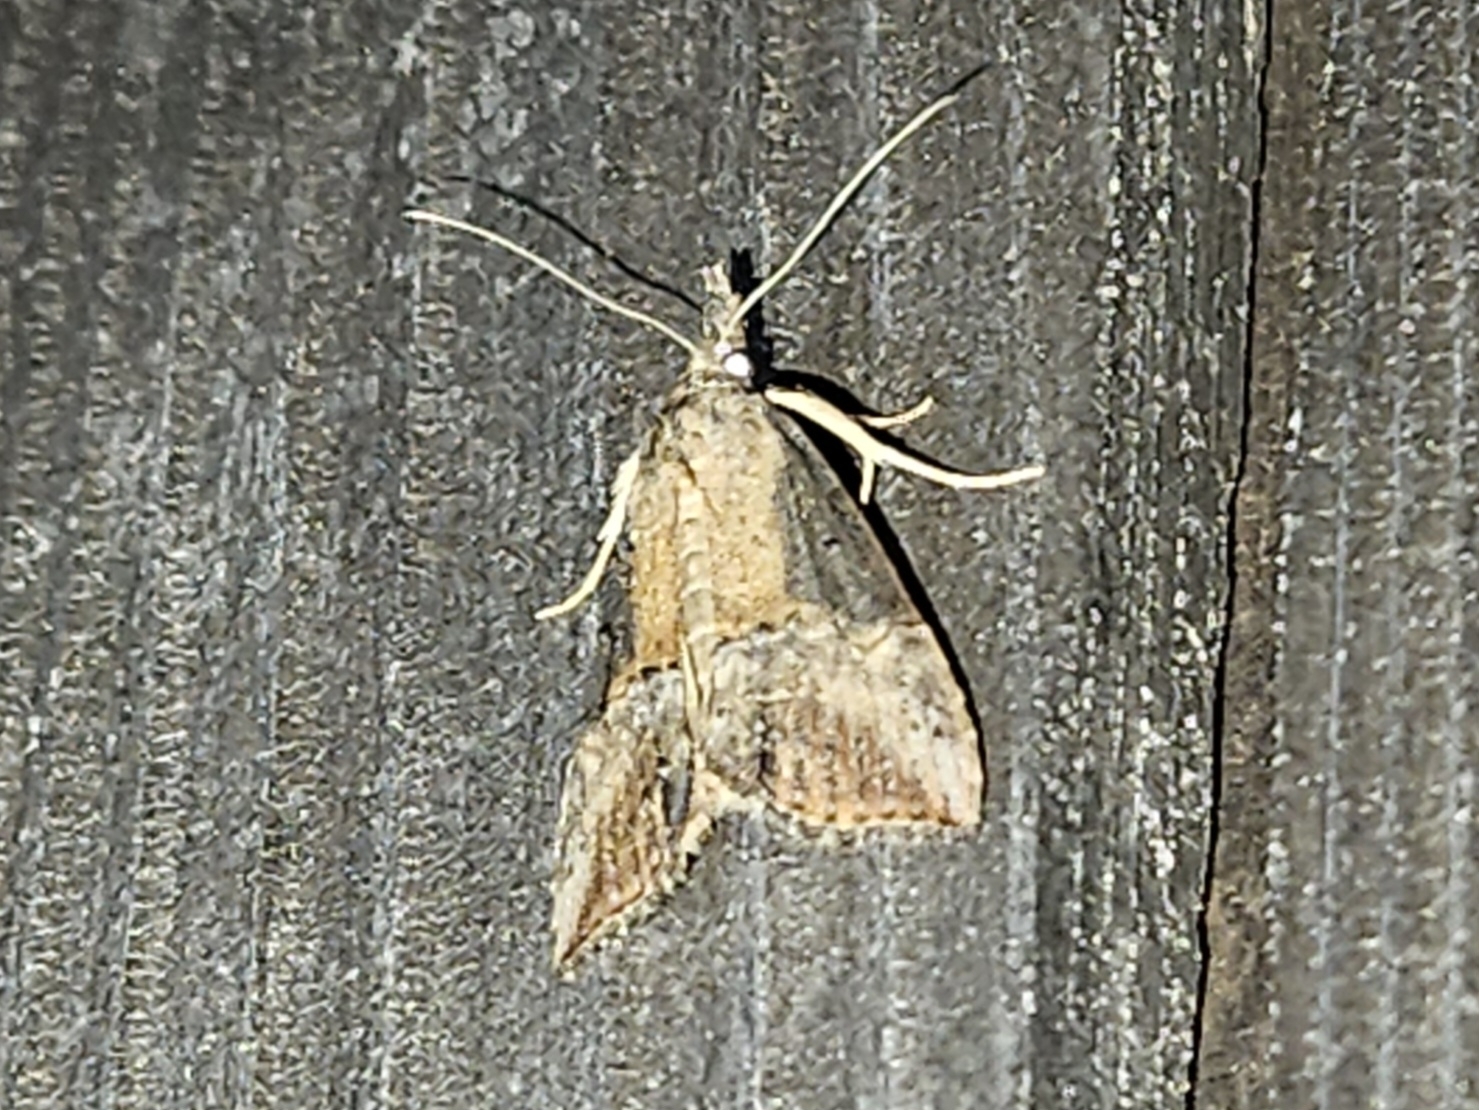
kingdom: Animalia
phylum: Arthropoda
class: Insecta
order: Lepidoptera
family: Erebidae
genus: Hypena
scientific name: Hypena scabra
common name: Green cloverworm
